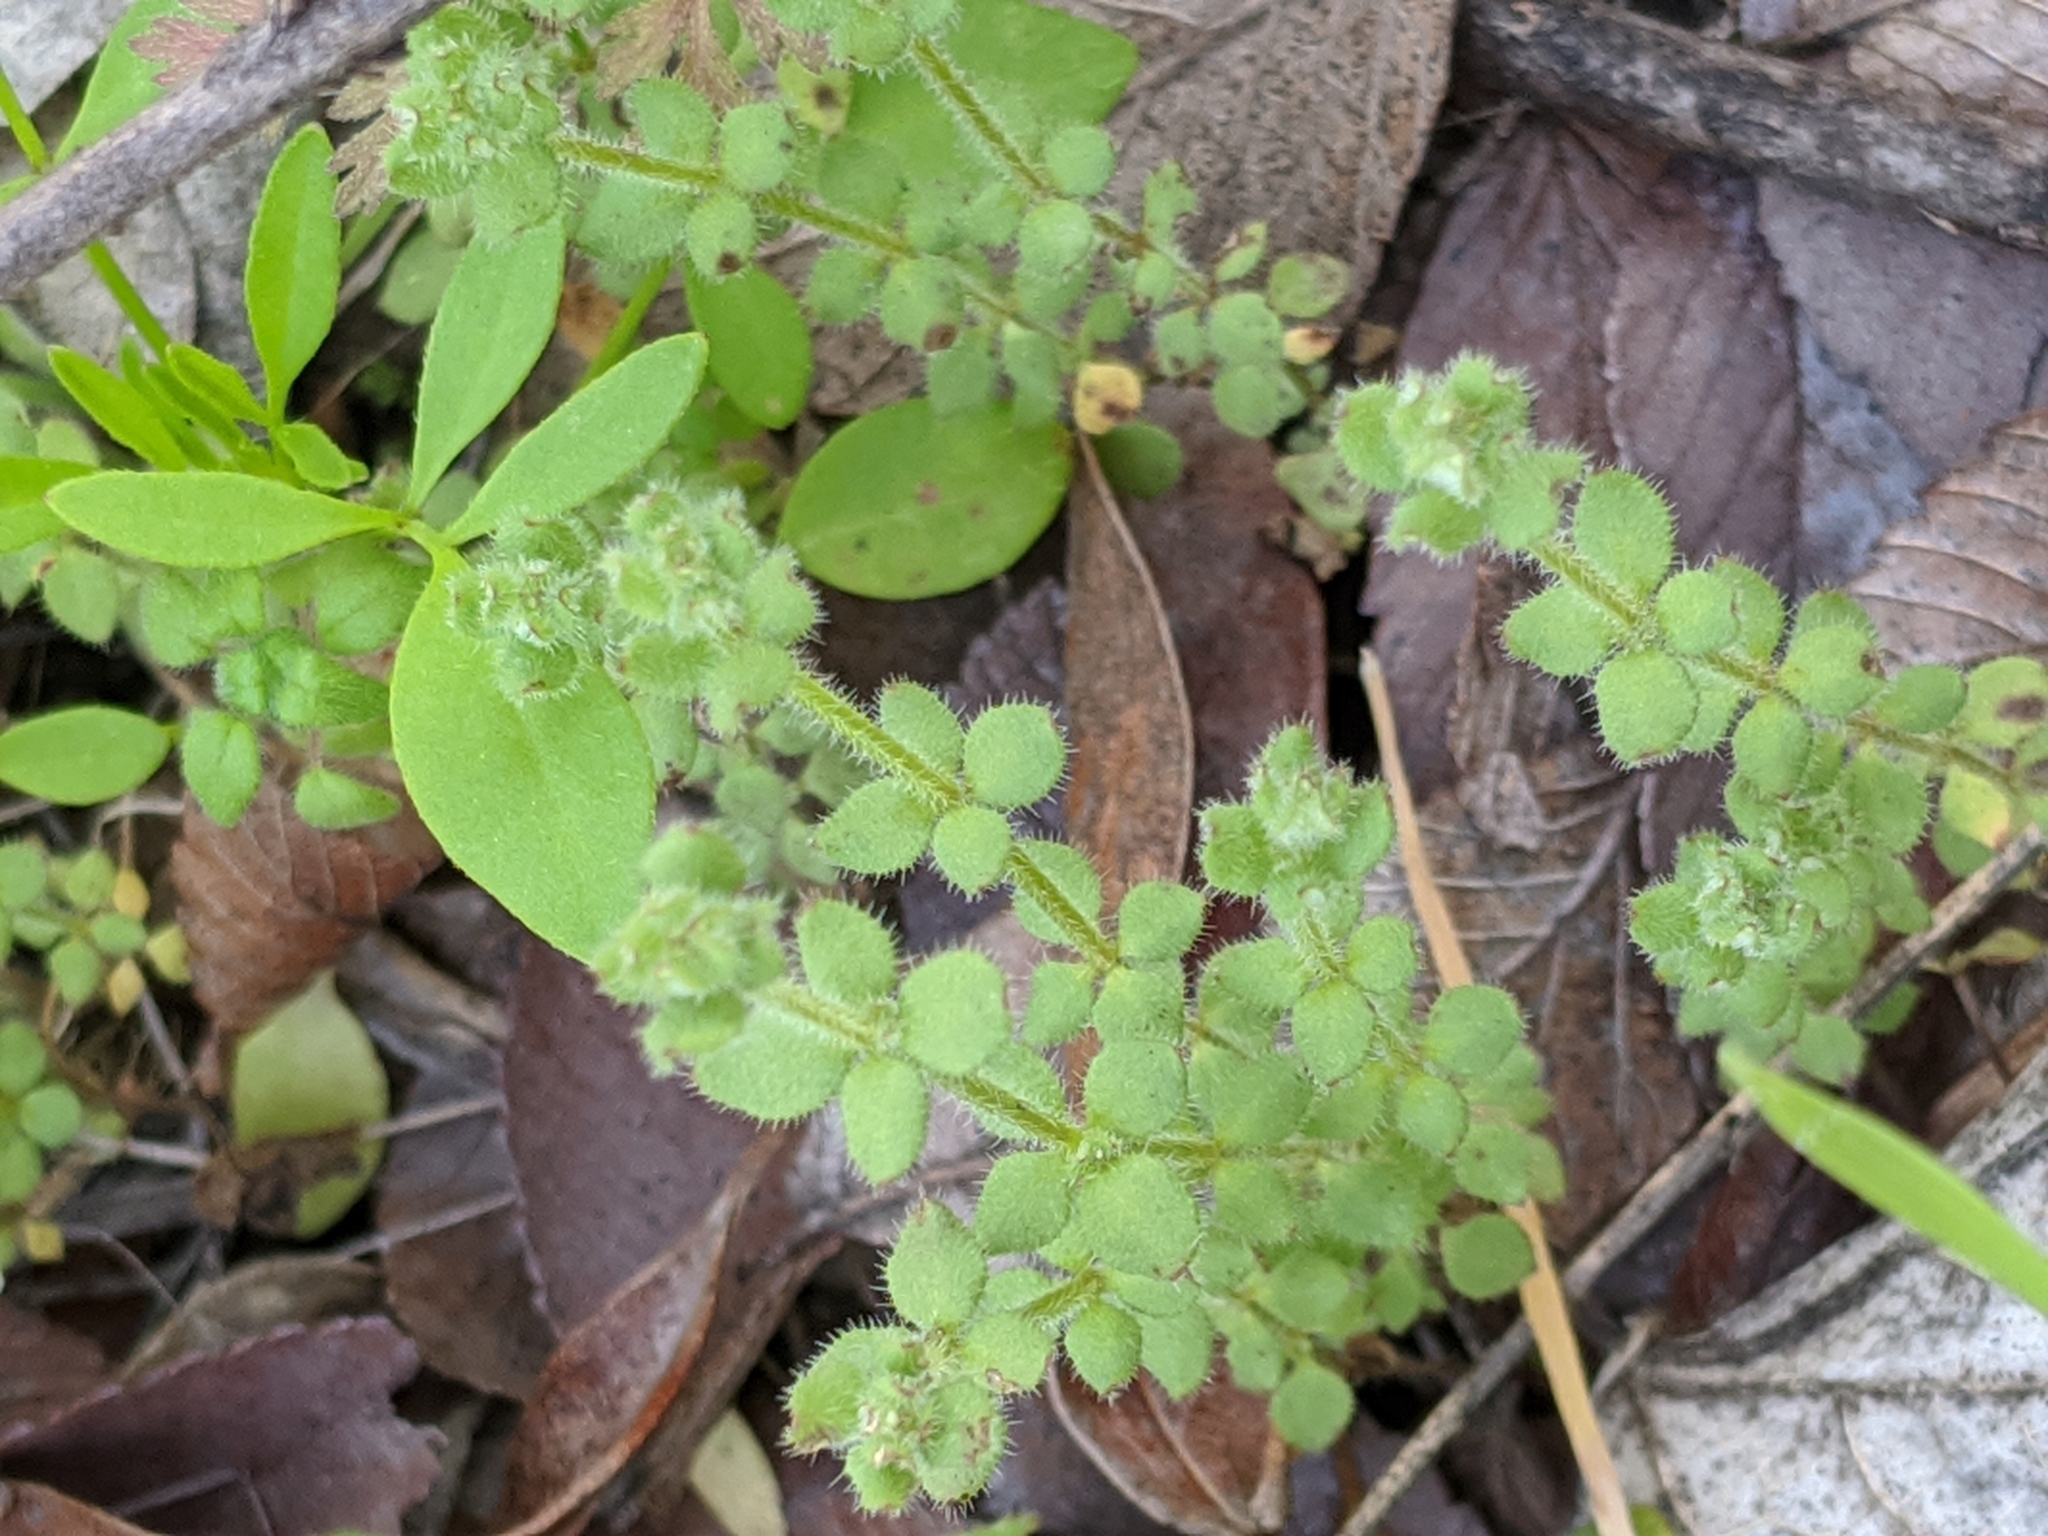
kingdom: Plantae
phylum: Tracheophyta
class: Magnoliopsida
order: Gentianales
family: Rubiaceae
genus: Galium
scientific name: Galium texense
